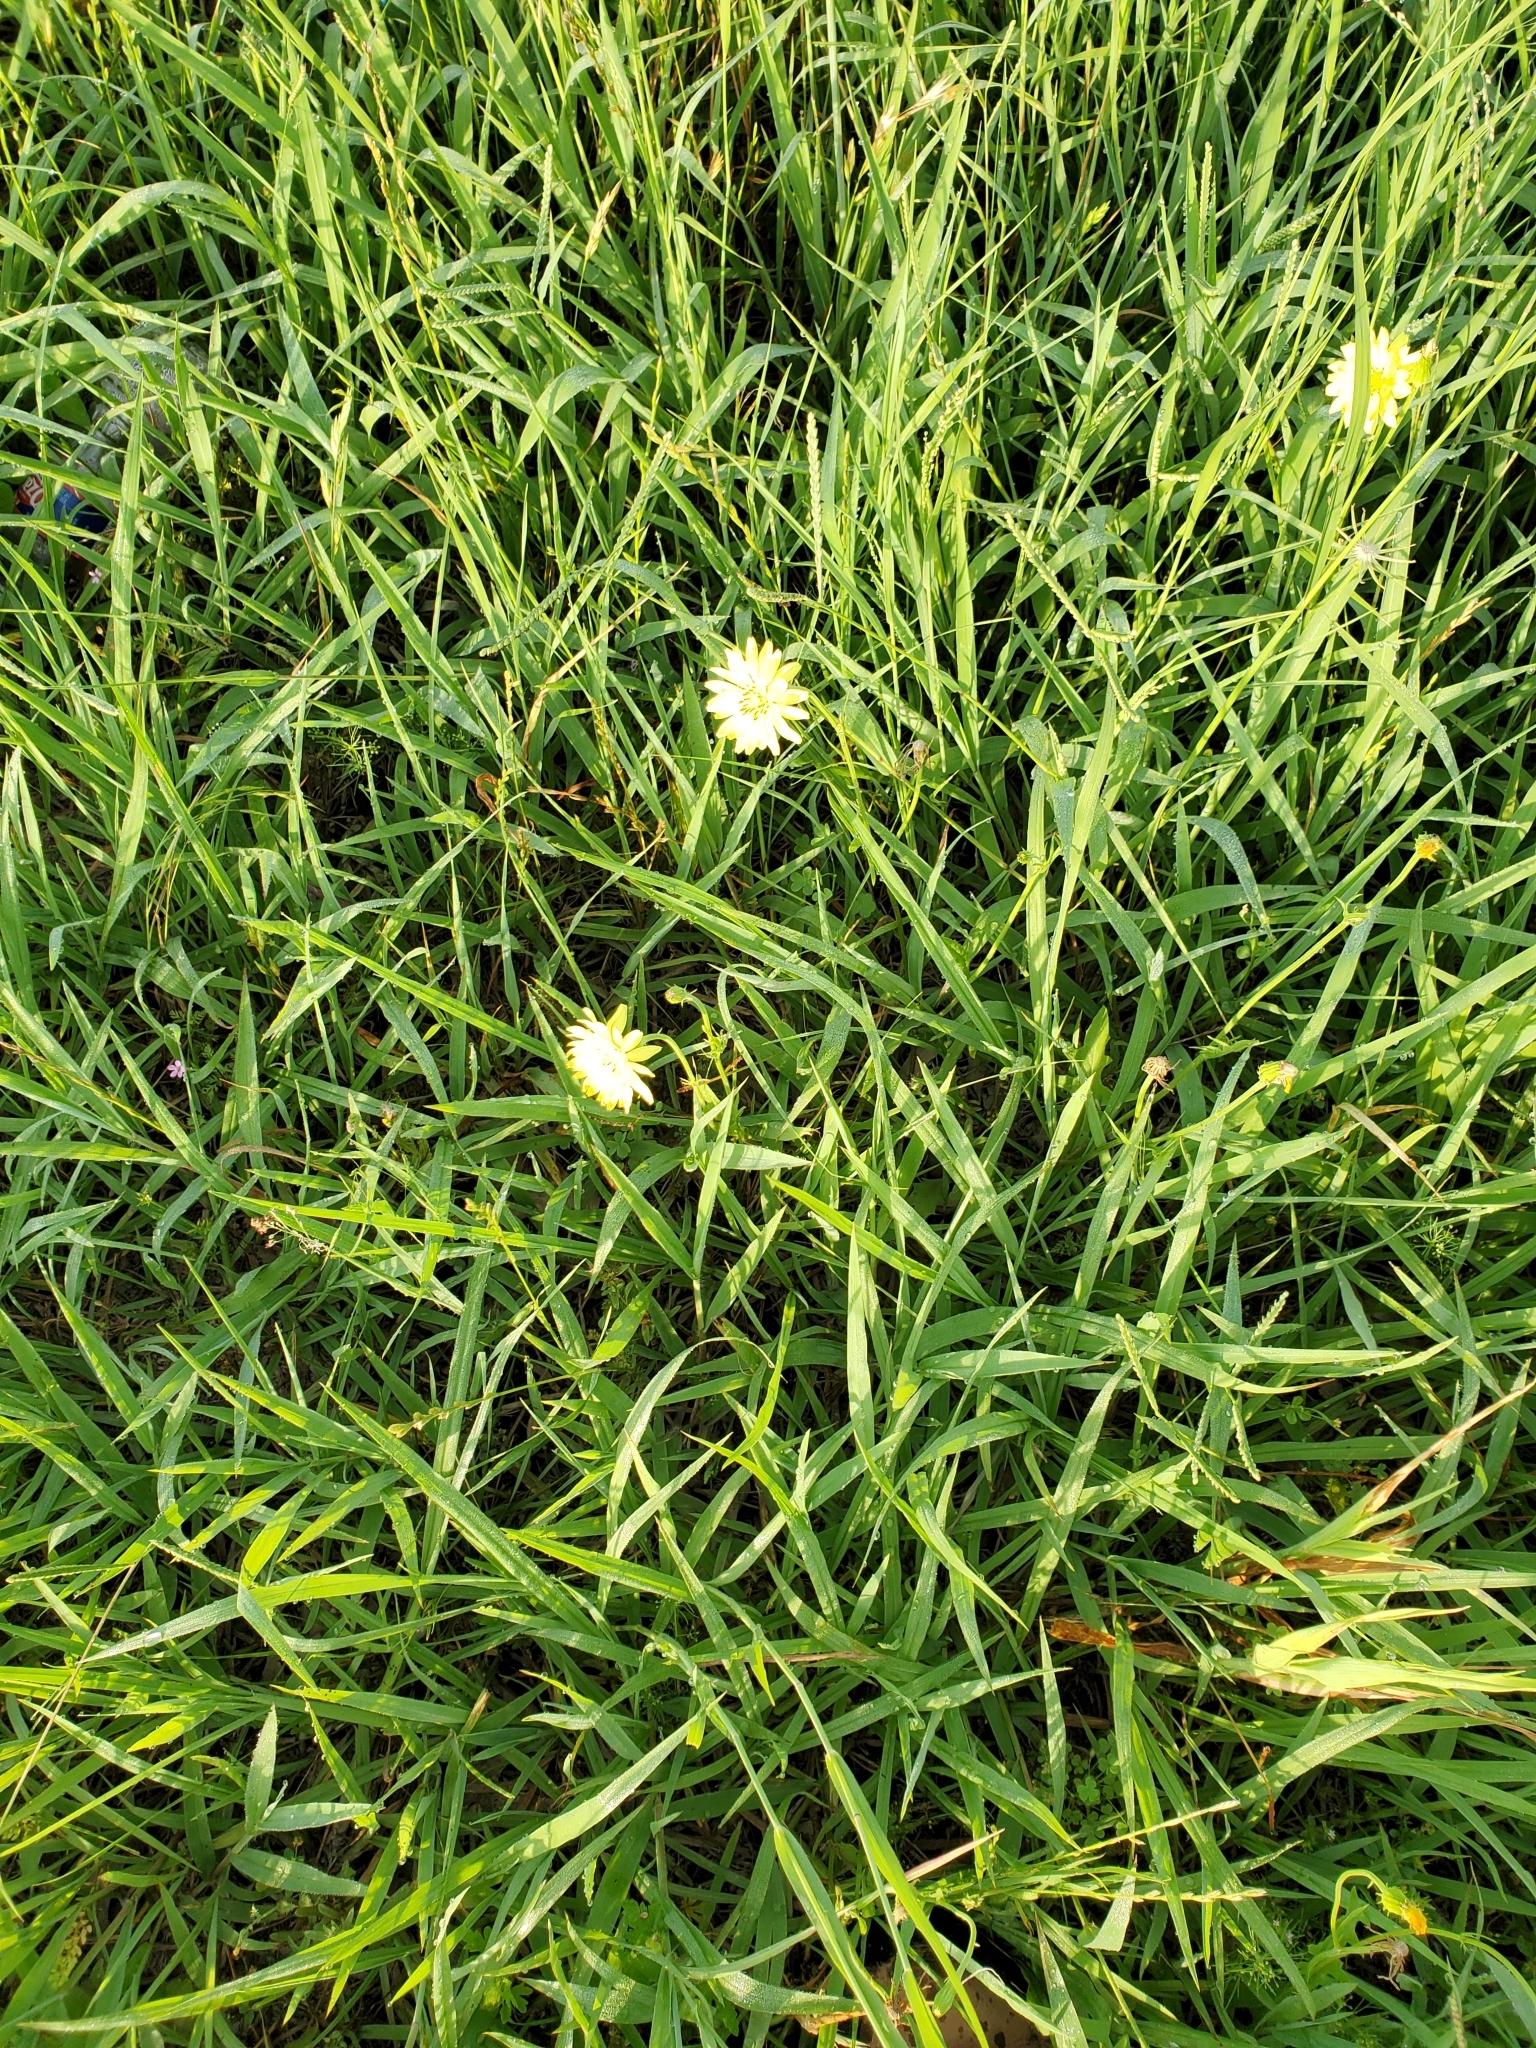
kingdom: Plantae
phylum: Tracheophyta
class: Magnoliopsida
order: Asterales
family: Asteraceae
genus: Pyrrhopappus
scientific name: Pyrrhopappus pauciflorus
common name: Texas false dandelion
